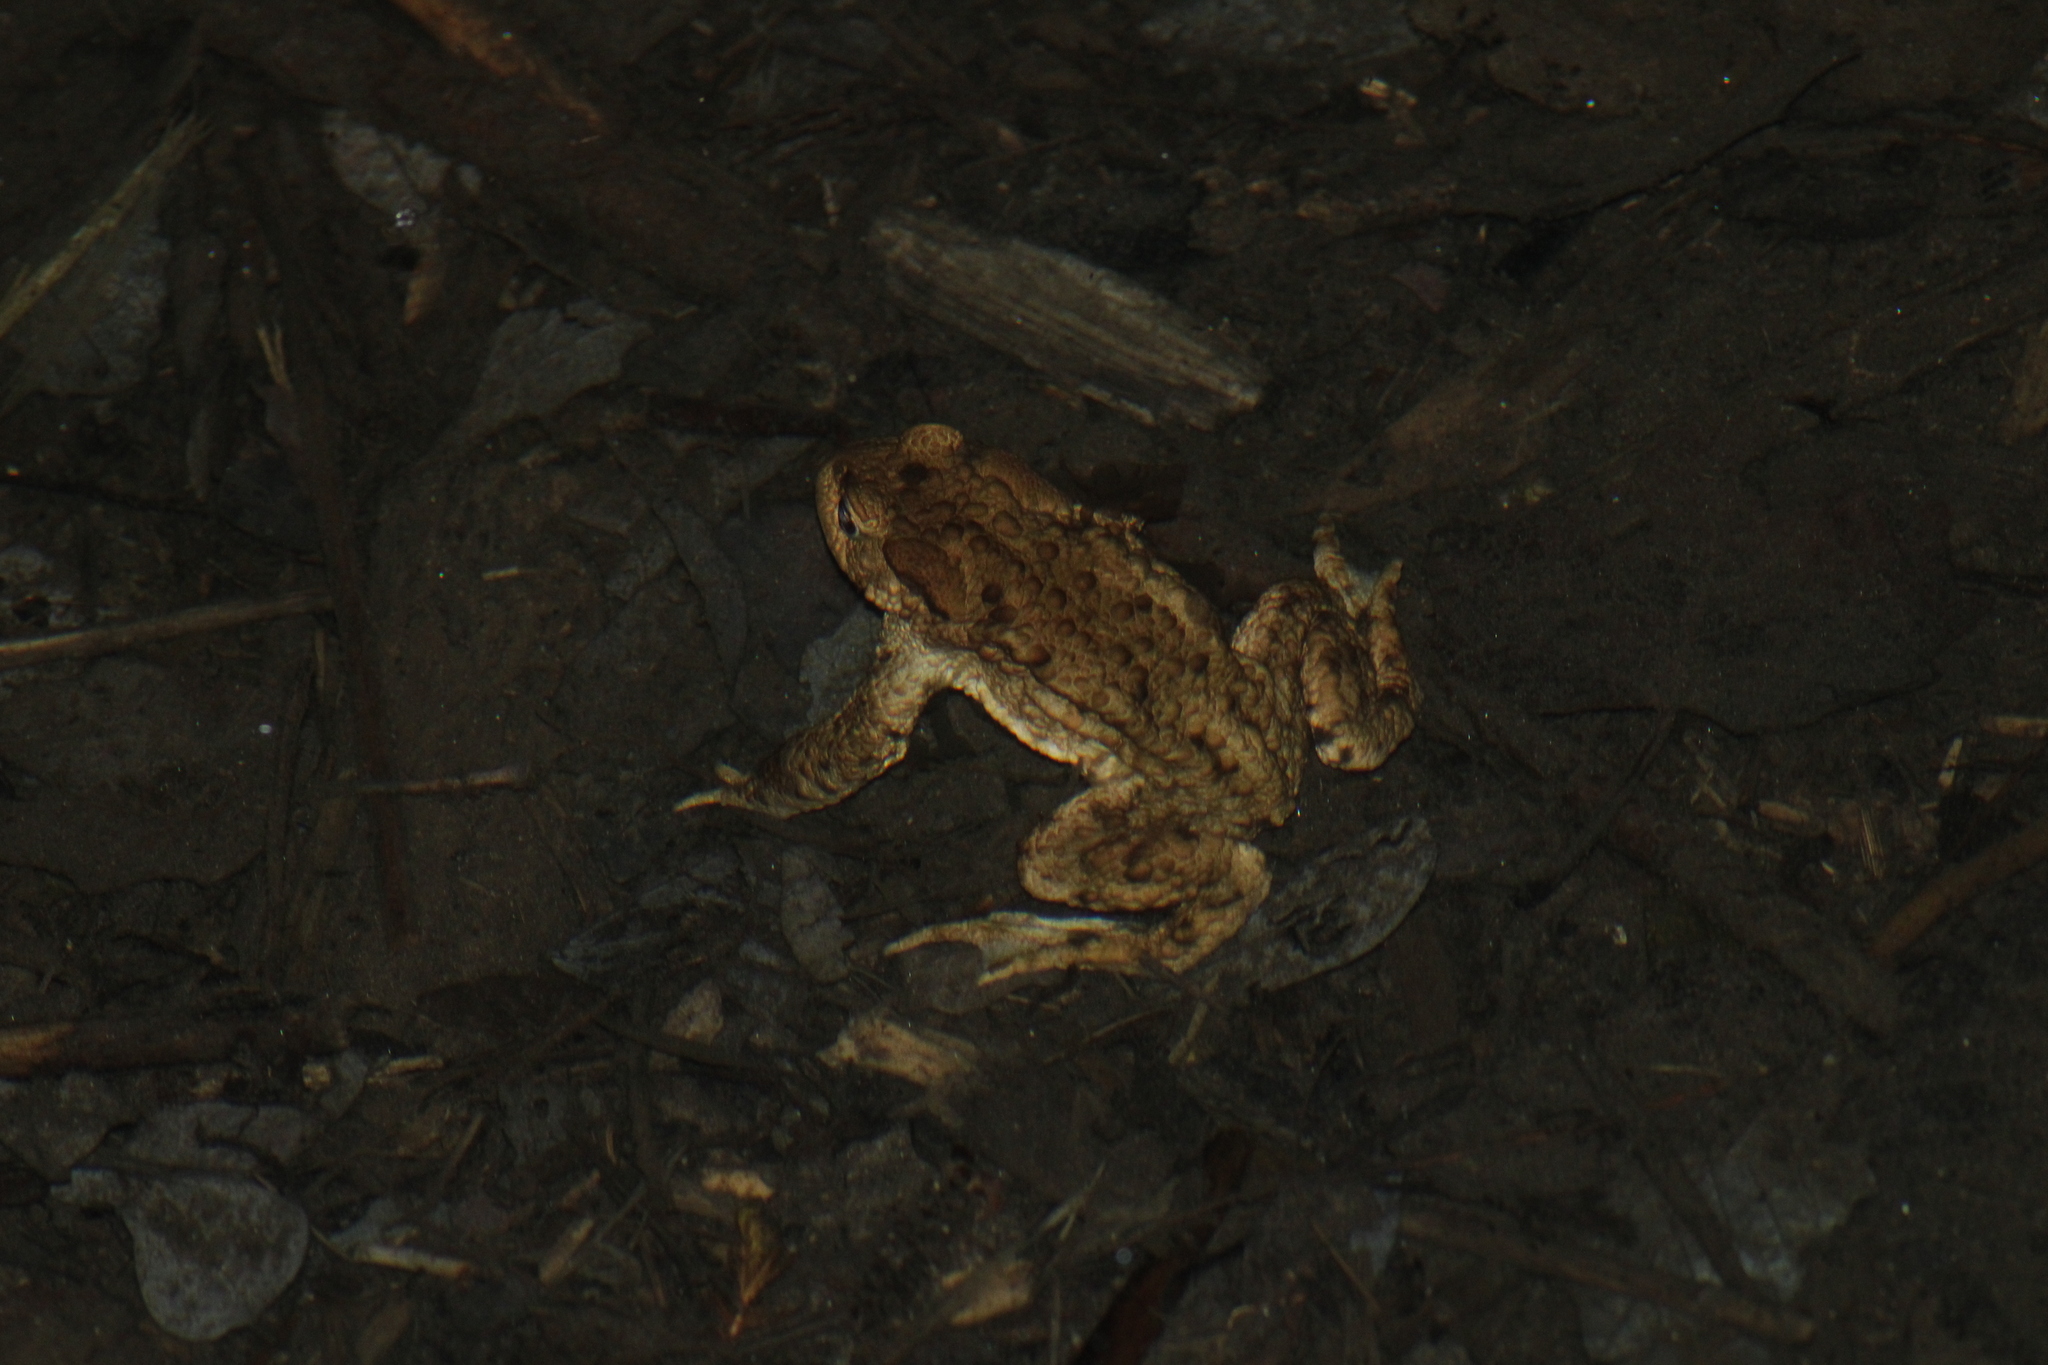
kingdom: Animalia
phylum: Chordata
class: Amphibia
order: Anura
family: Bufonidae
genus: Bufo
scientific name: Bufo bufo
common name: Common toad
